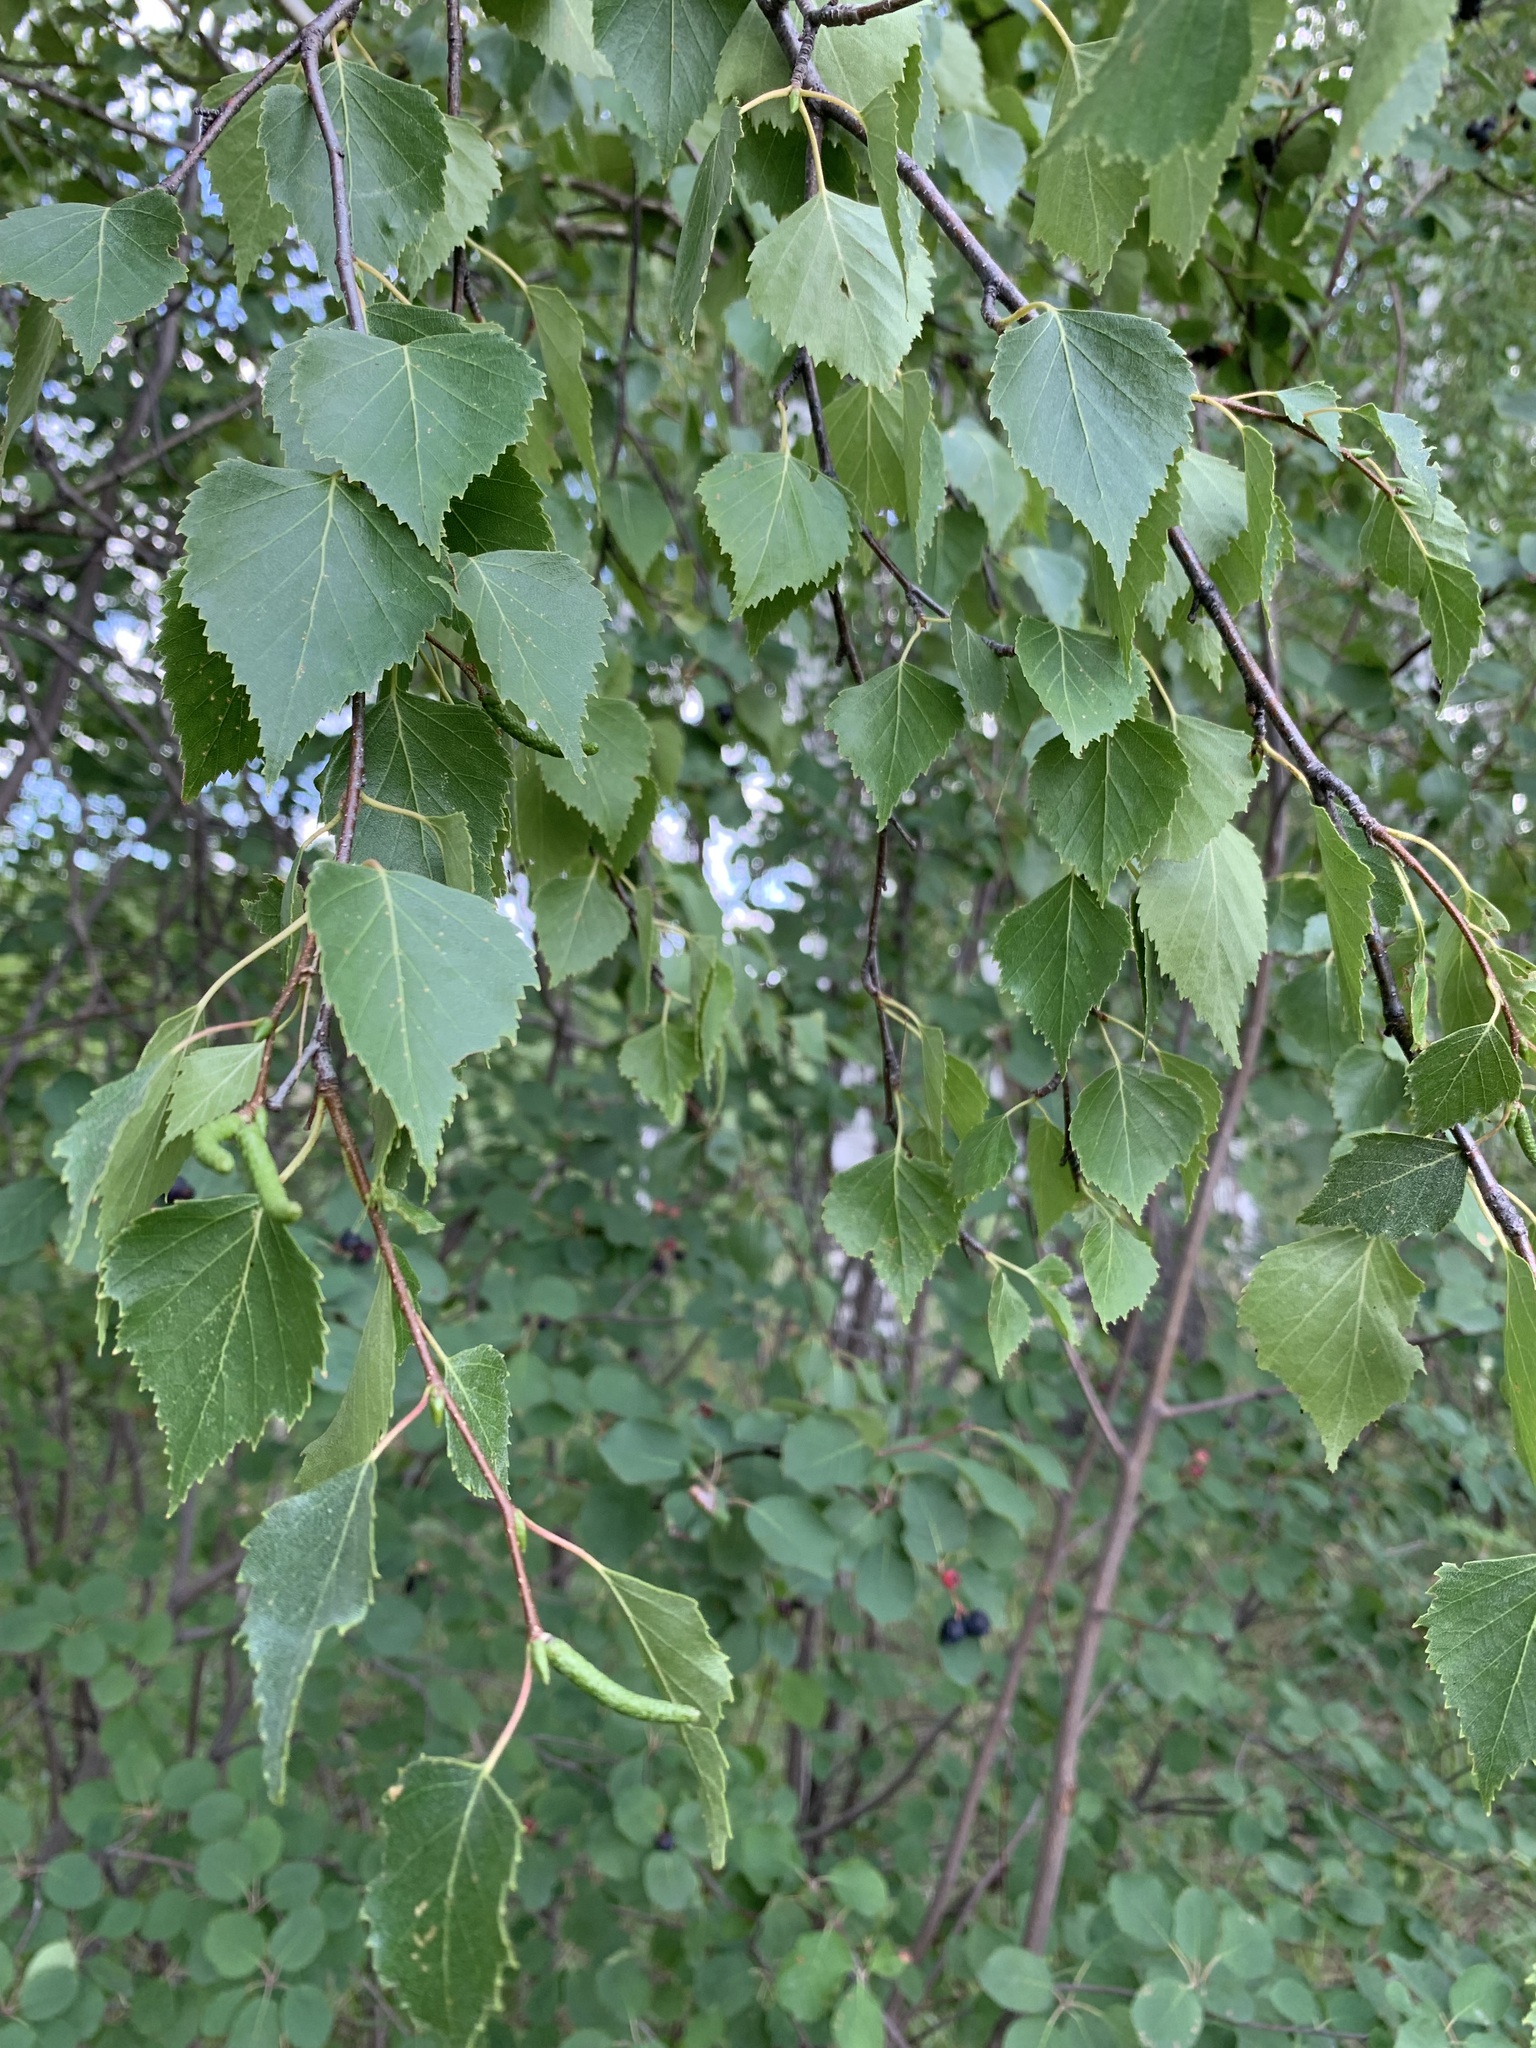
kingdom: Plantae
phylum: Tracheophyta
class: Magnoliopsida
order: Fagales
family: Betulaceae
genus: Betula
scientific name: Betula pendula
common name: Silver birch
